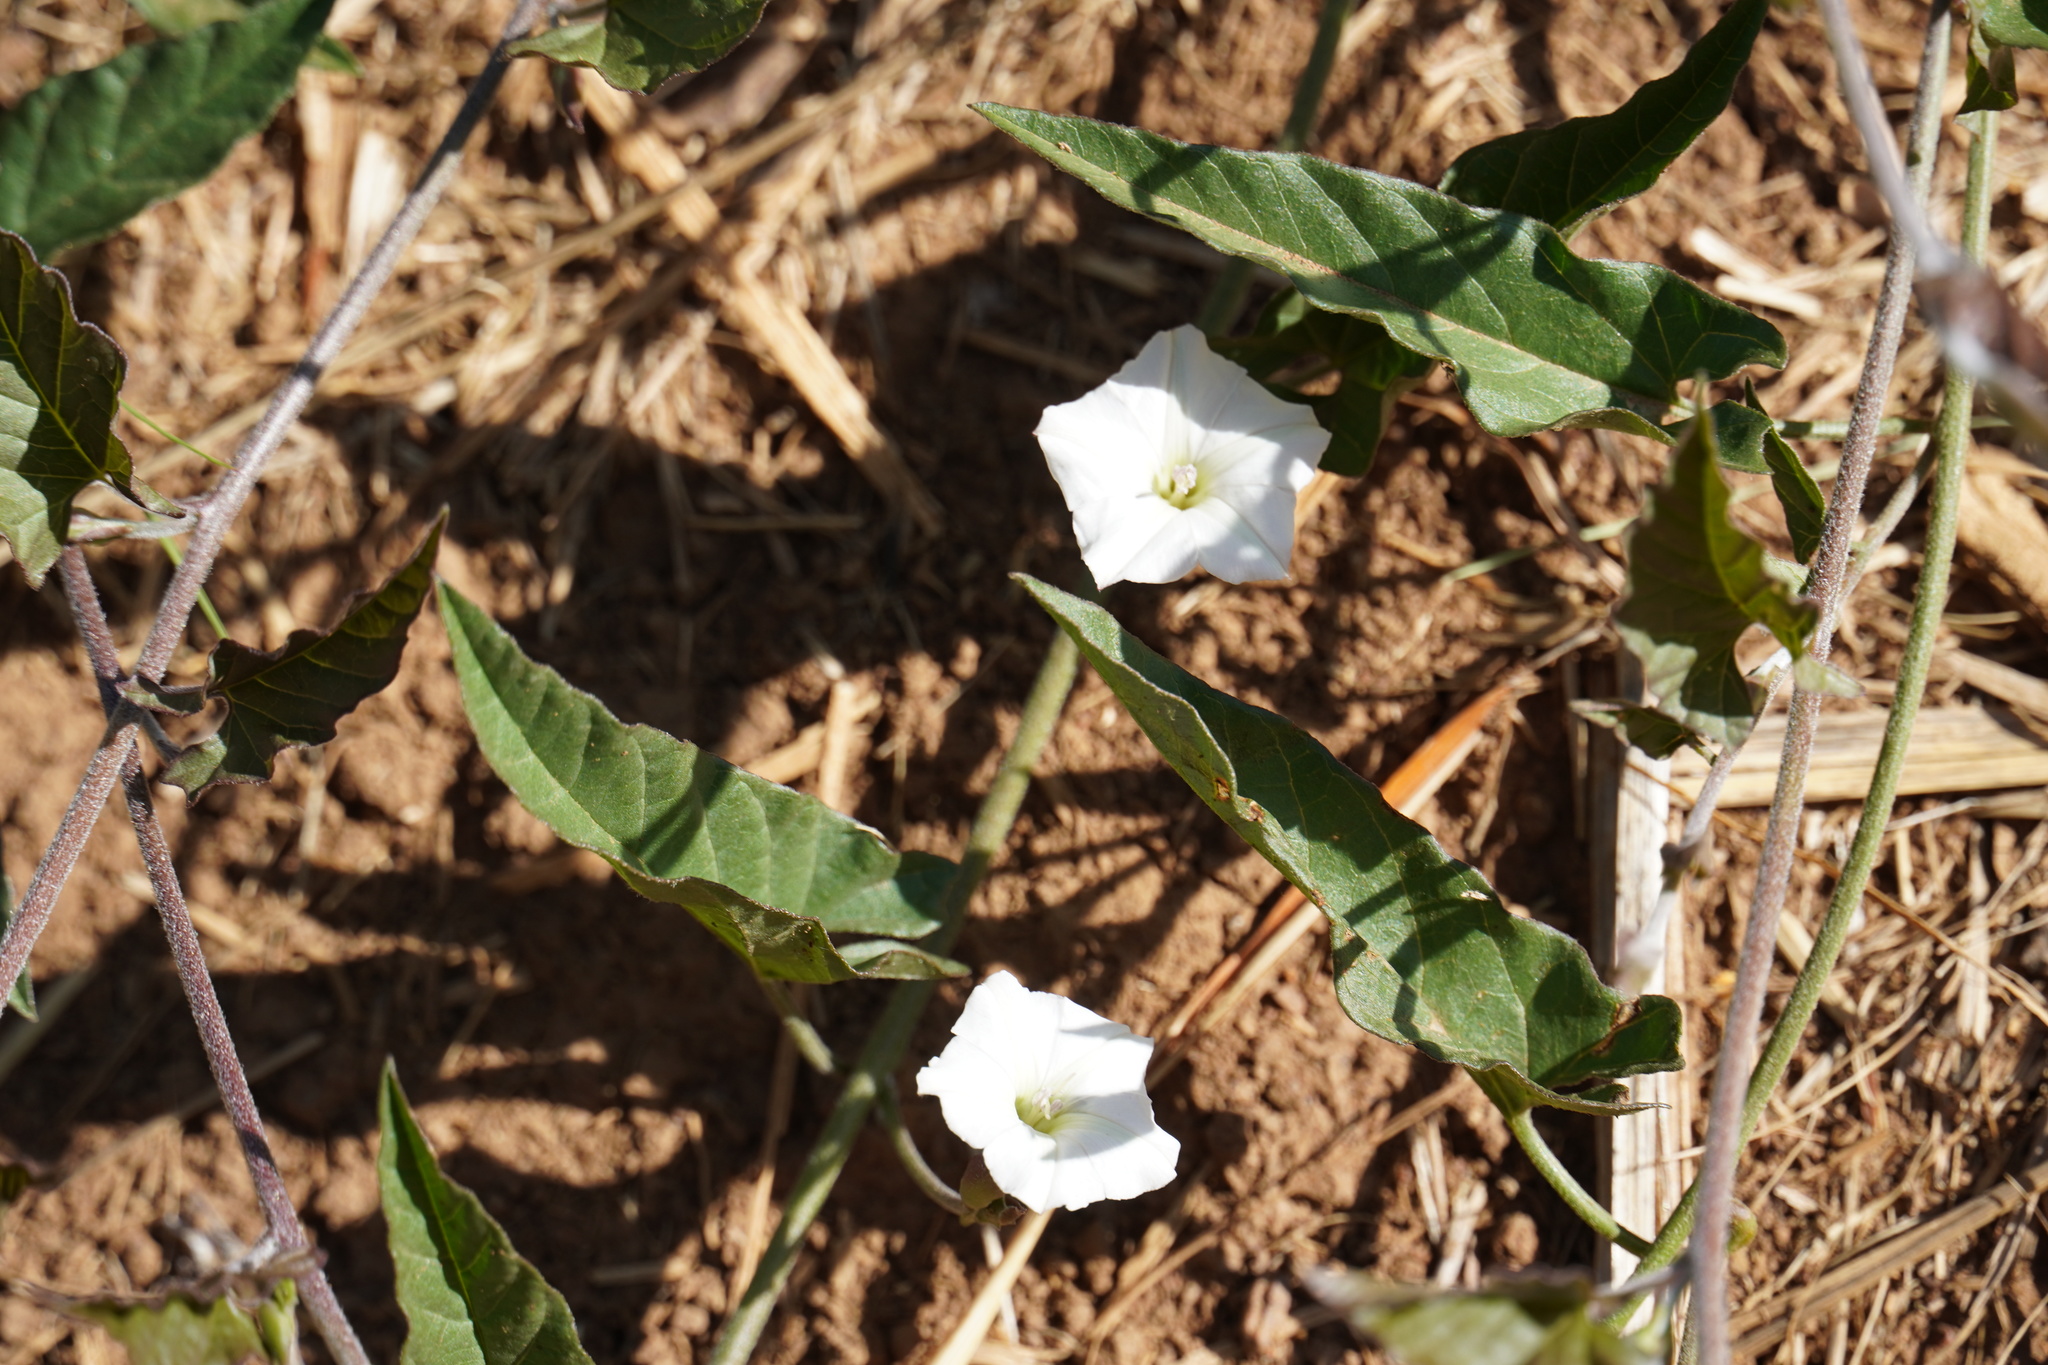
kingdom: Plantae
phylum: Tracheophyta
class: Magnoliopsida
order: Solanales
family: Convolvulaceae
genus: Convolvulus
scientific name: Convolvulus sagittatus
